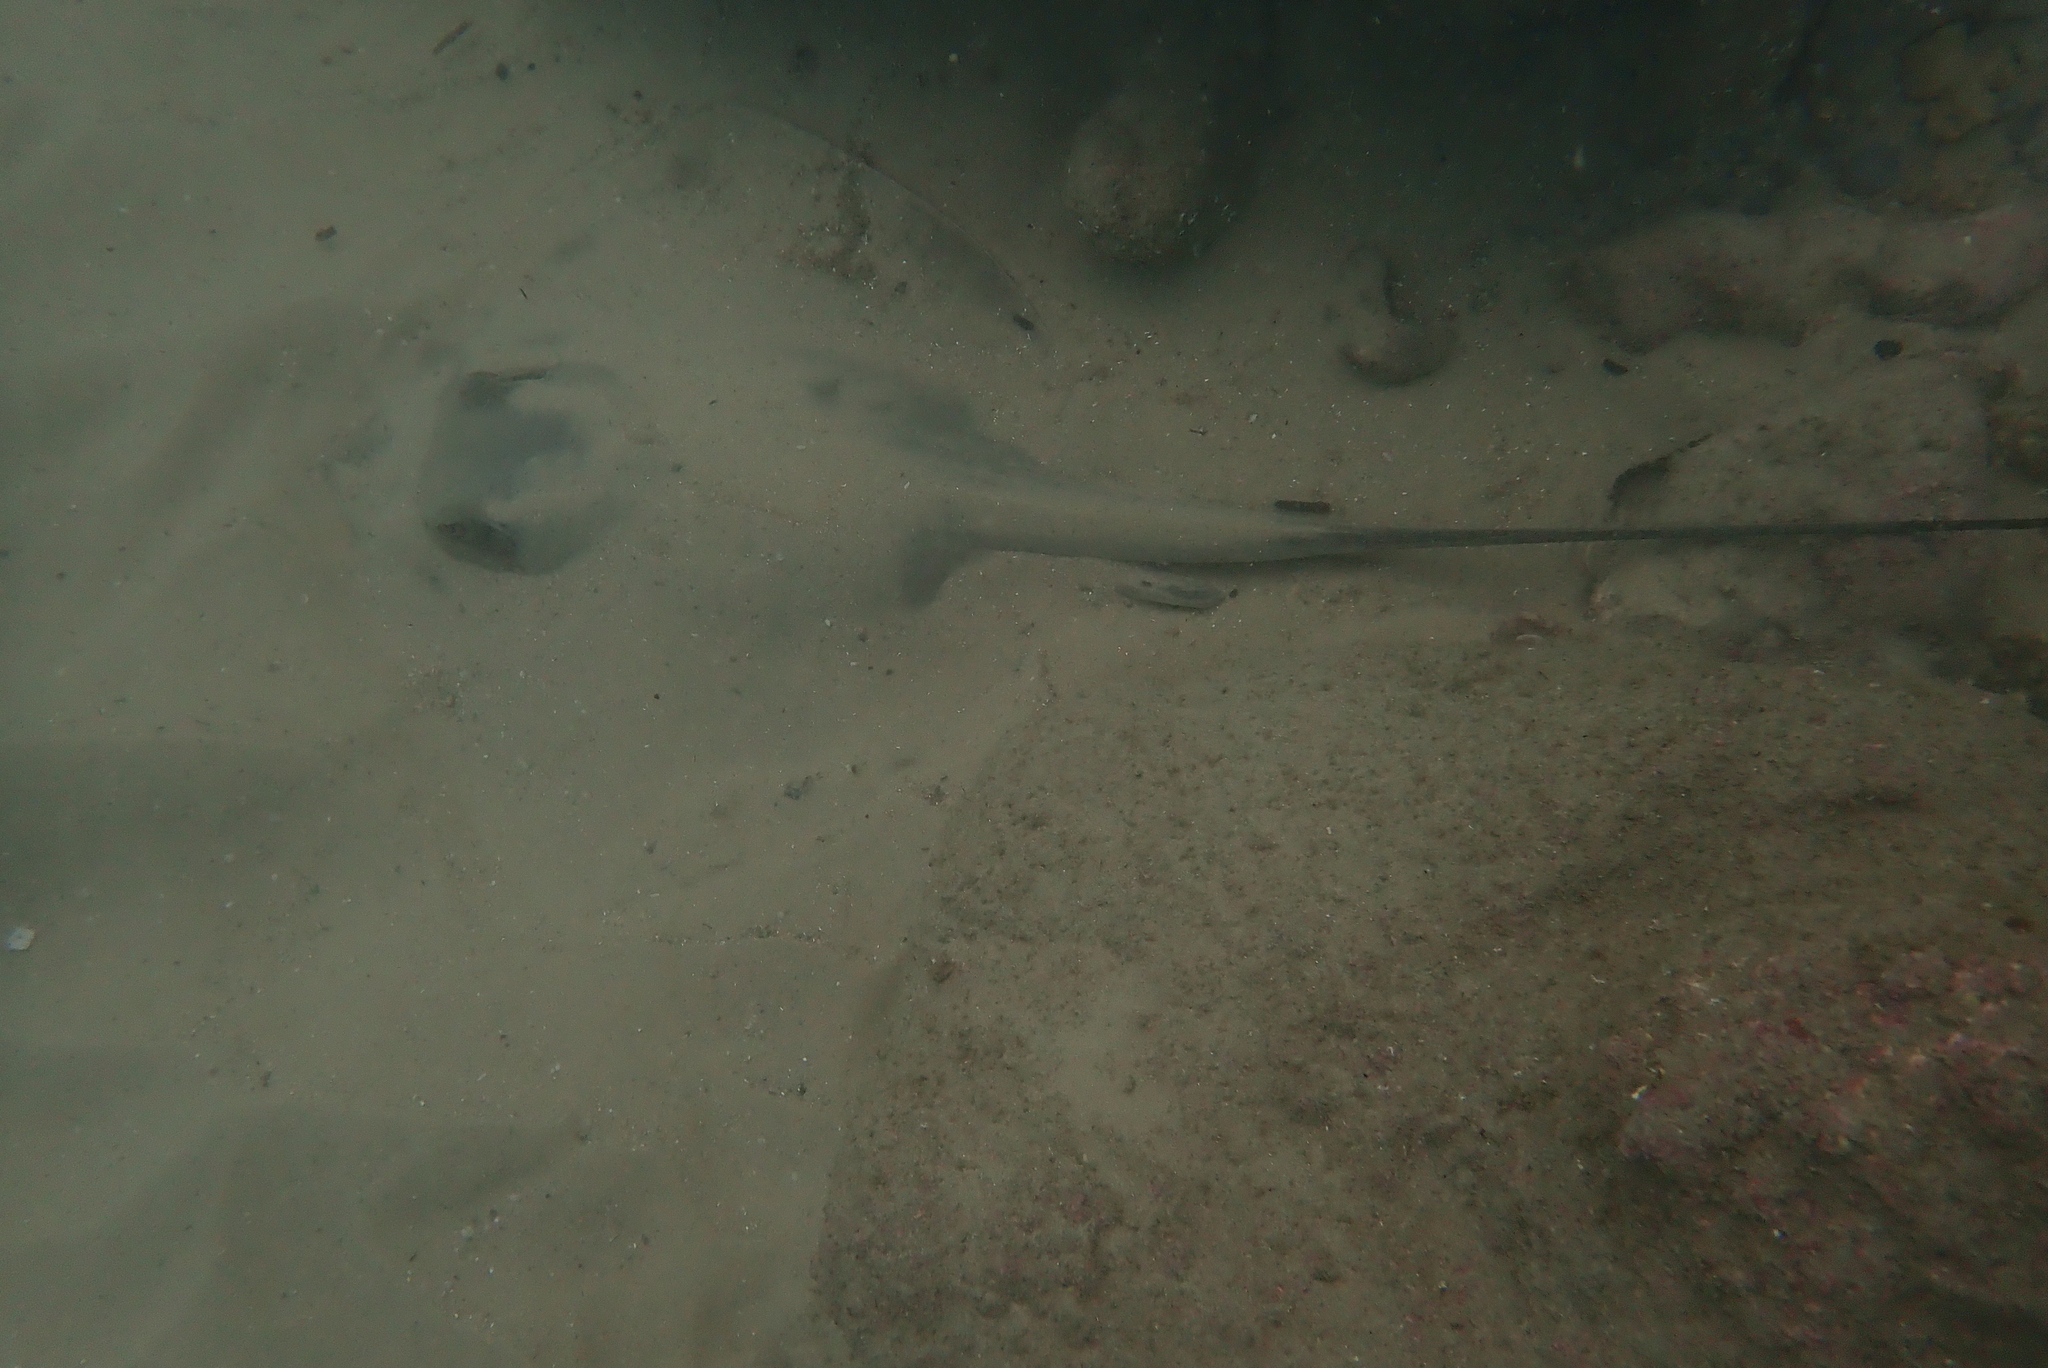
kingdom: Animalia
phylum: Chordata
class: Elasmobranchii
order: Myliobatiformes
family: Dasyatidae
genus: Dasyatis
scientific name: Dasyatis pastinaca
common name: Common stingray
